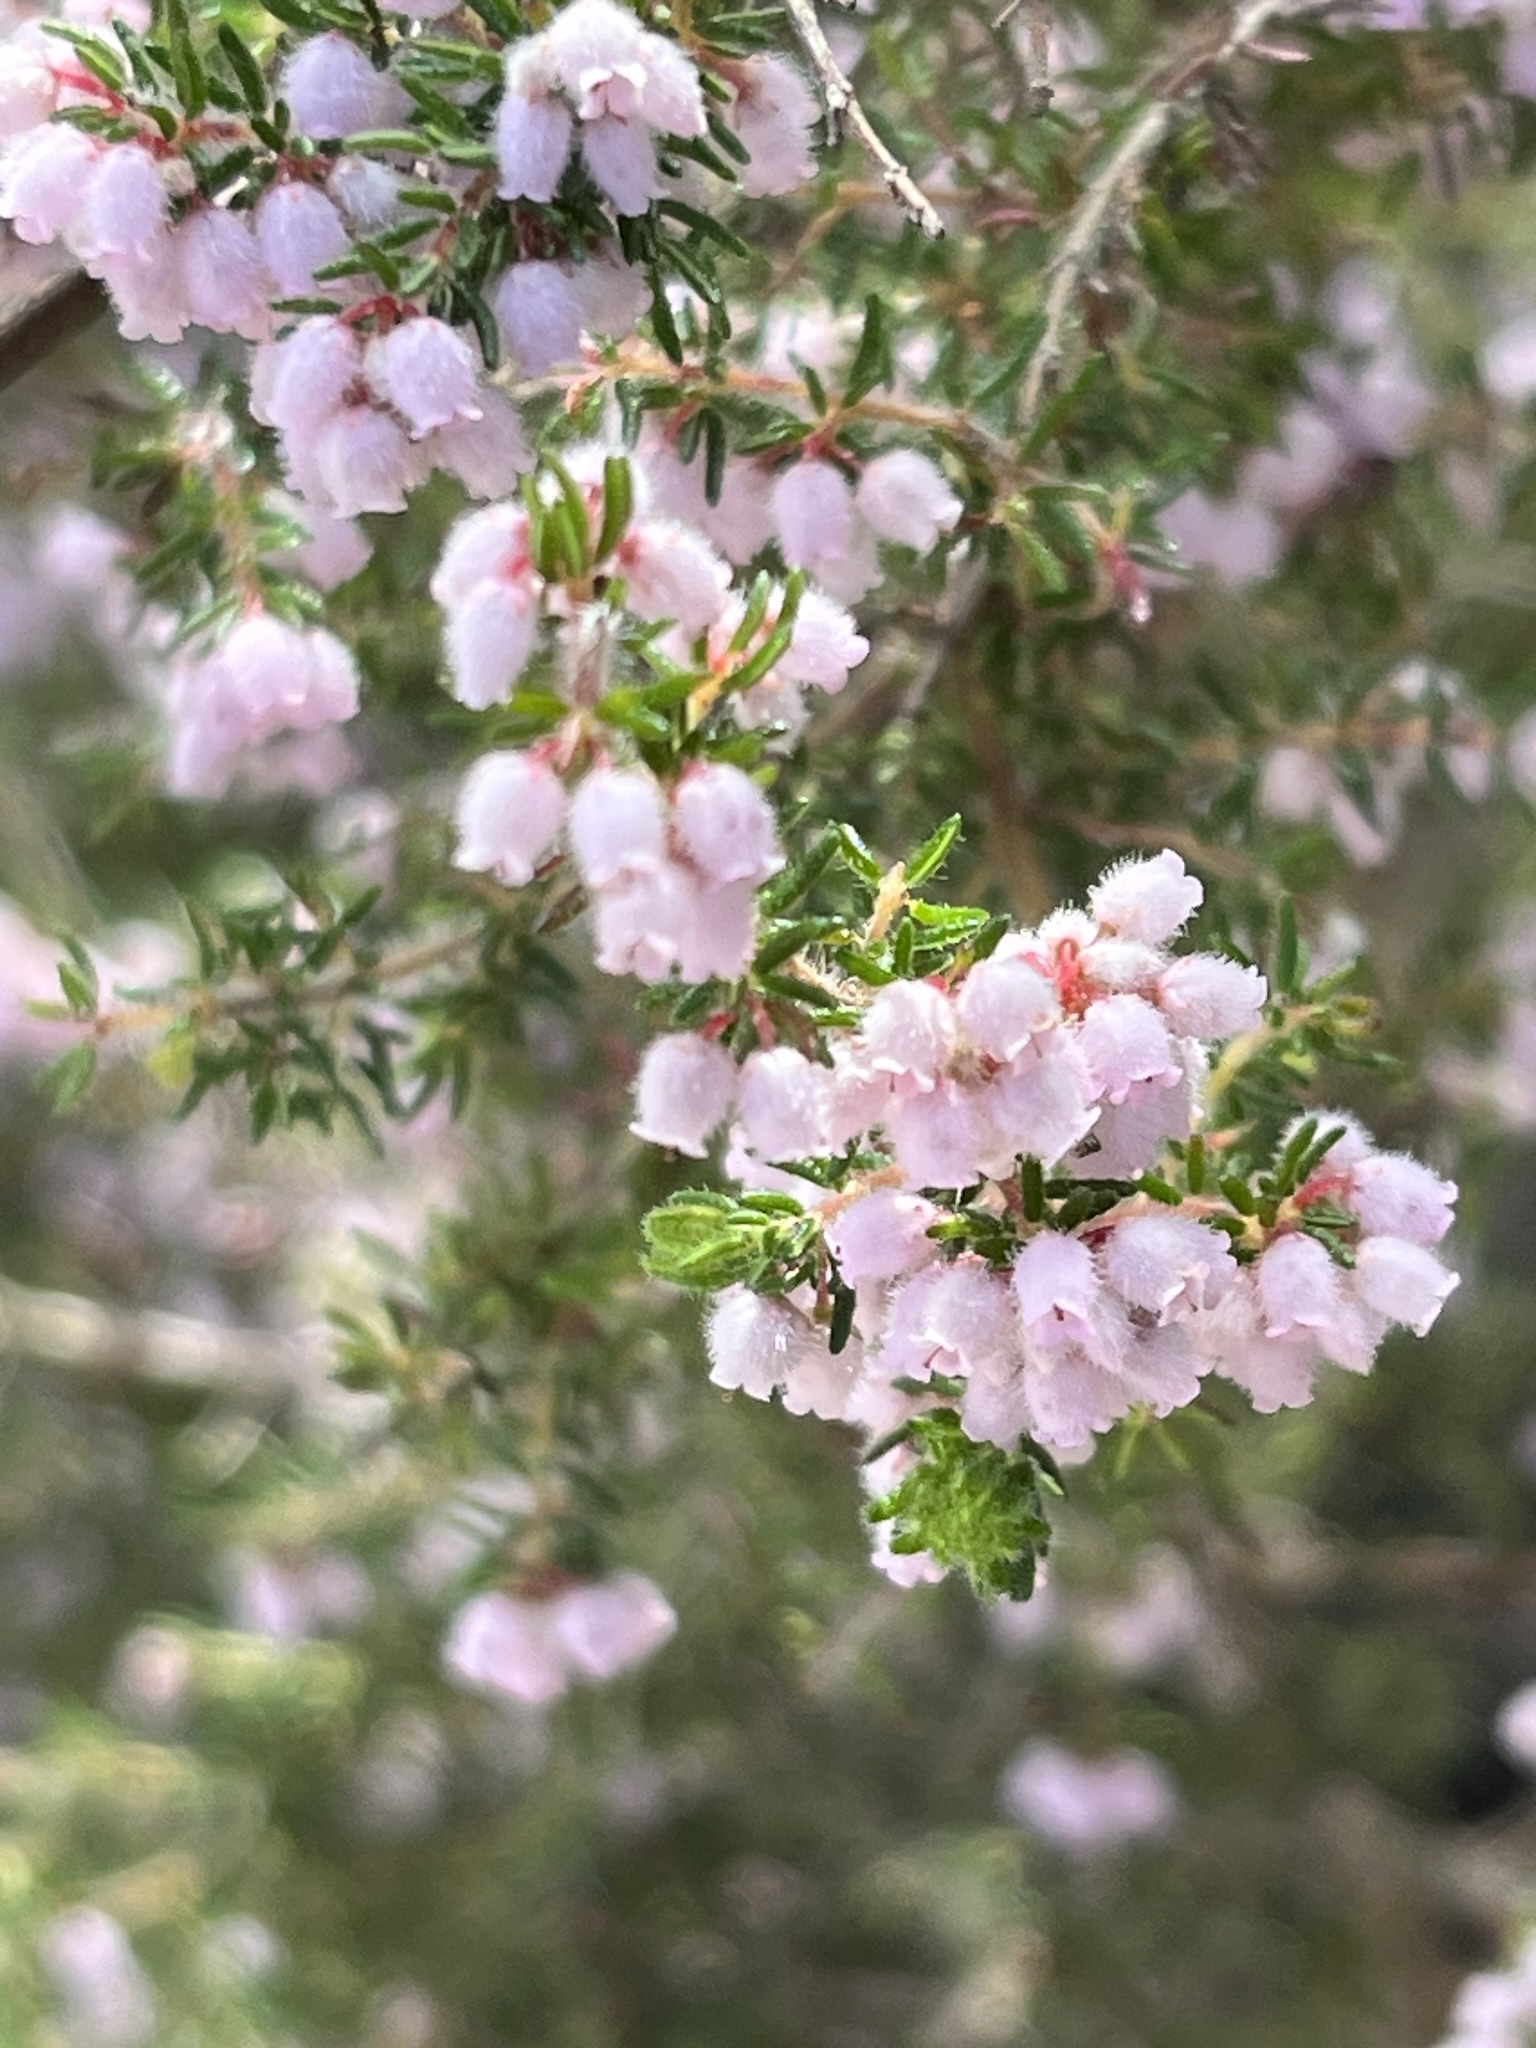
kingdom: Plantae
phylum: Tracheophyta
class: Magnoliopsida
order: Ericales
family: Ericaceae
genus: Erica
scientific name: Erica parviflora
